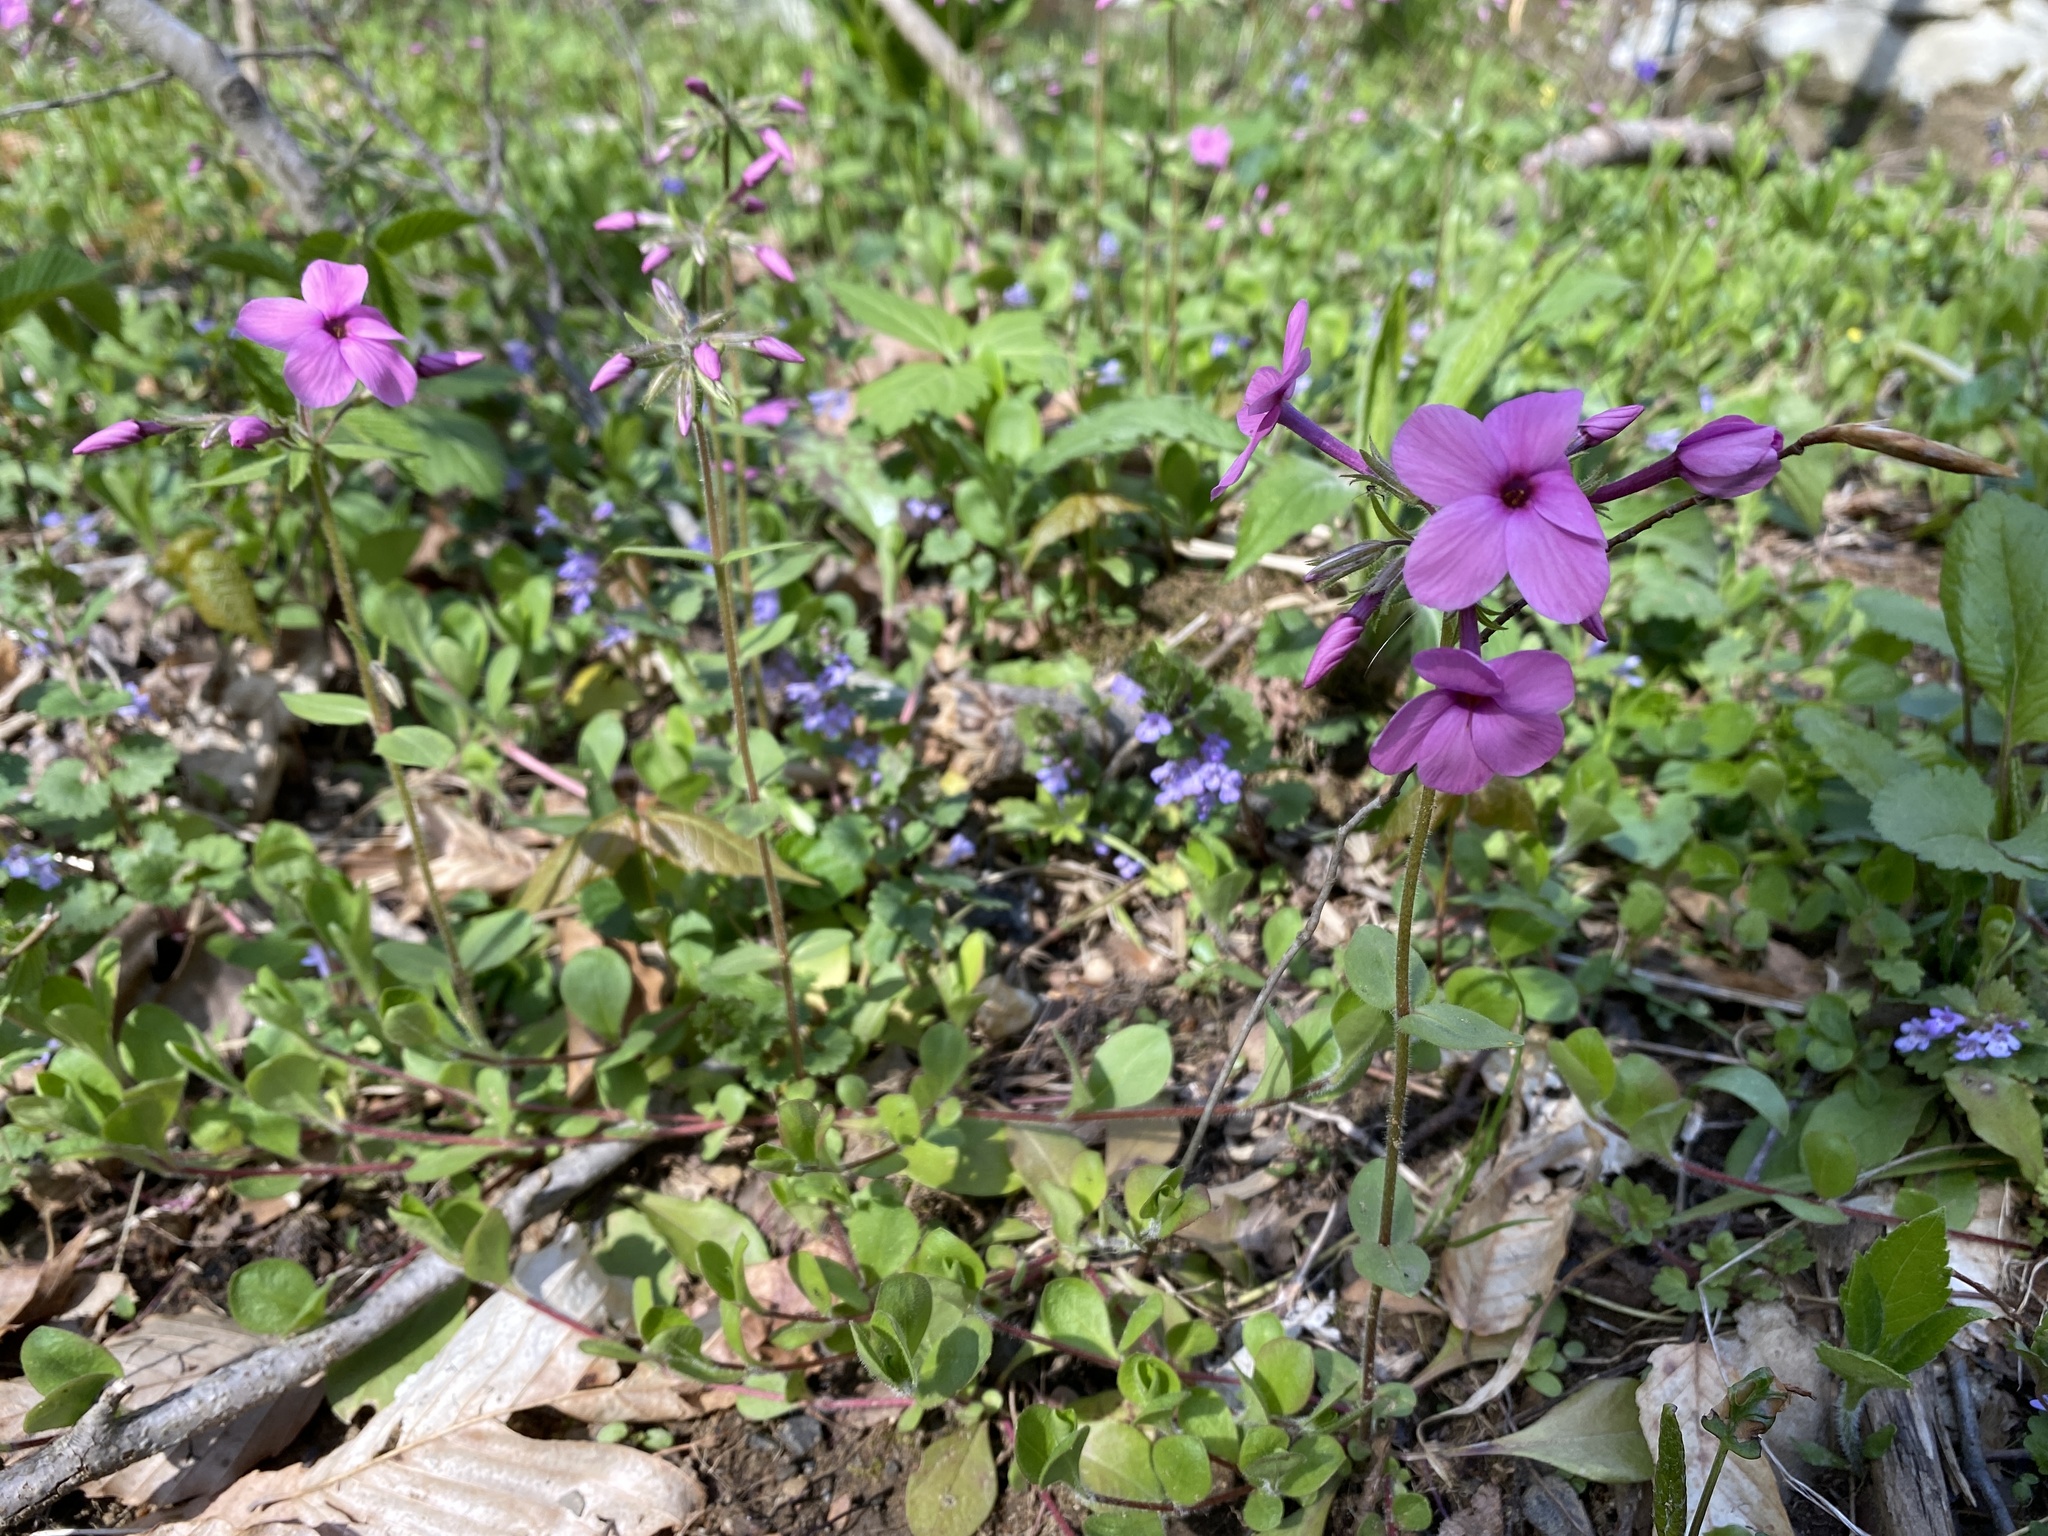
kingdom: Plantae
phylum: Tracheophyta
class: Magnoliopsida
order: Ericales
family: Polemoniaceae
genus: Phlox
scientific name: Phlox stolonifera
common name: Creeping phlox
